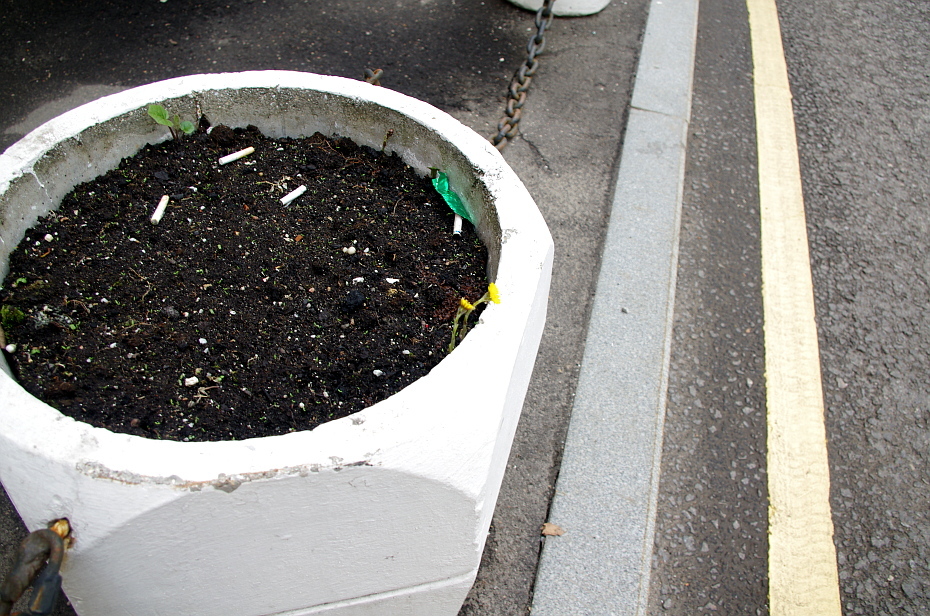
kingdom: Plantae
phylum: Tracheophyta
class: Magnoliopsida
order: Asterales
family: Asteraceae
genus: Tussilago
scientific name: Tussilago farfara
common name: Coltsfoot
